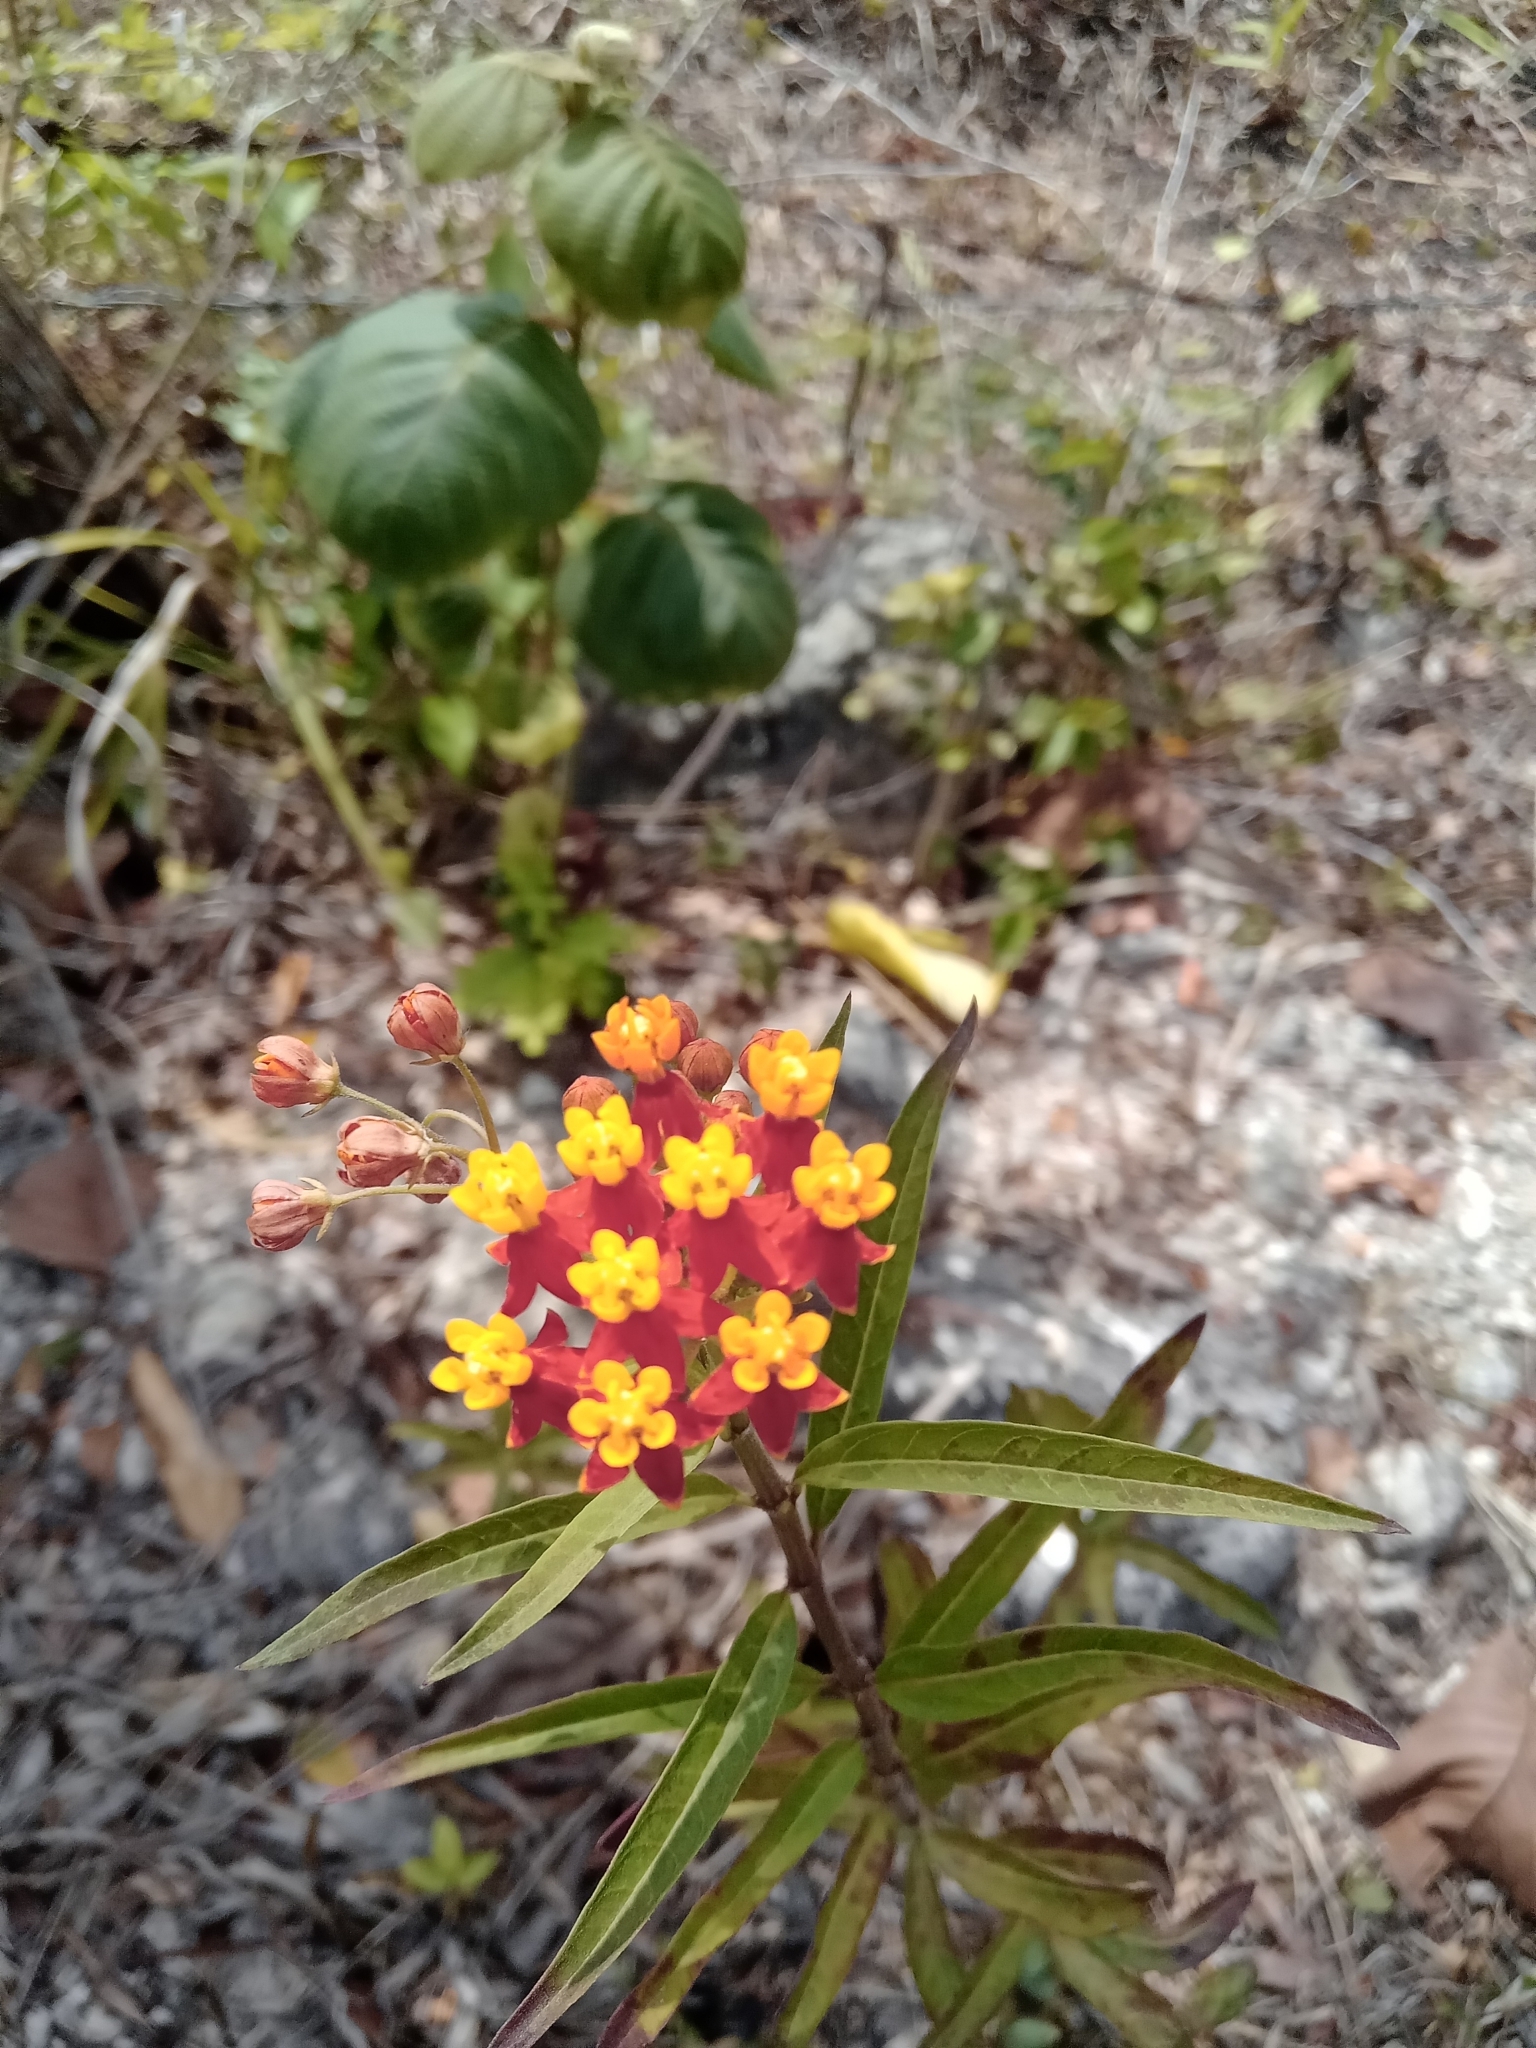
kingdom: Plantae
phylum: Tracheophyta
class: Magnoliopsida
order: Gentianales
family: Apocynaceae
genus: Asclepias
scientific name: Asclepias curassavica
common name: Bloodflower
